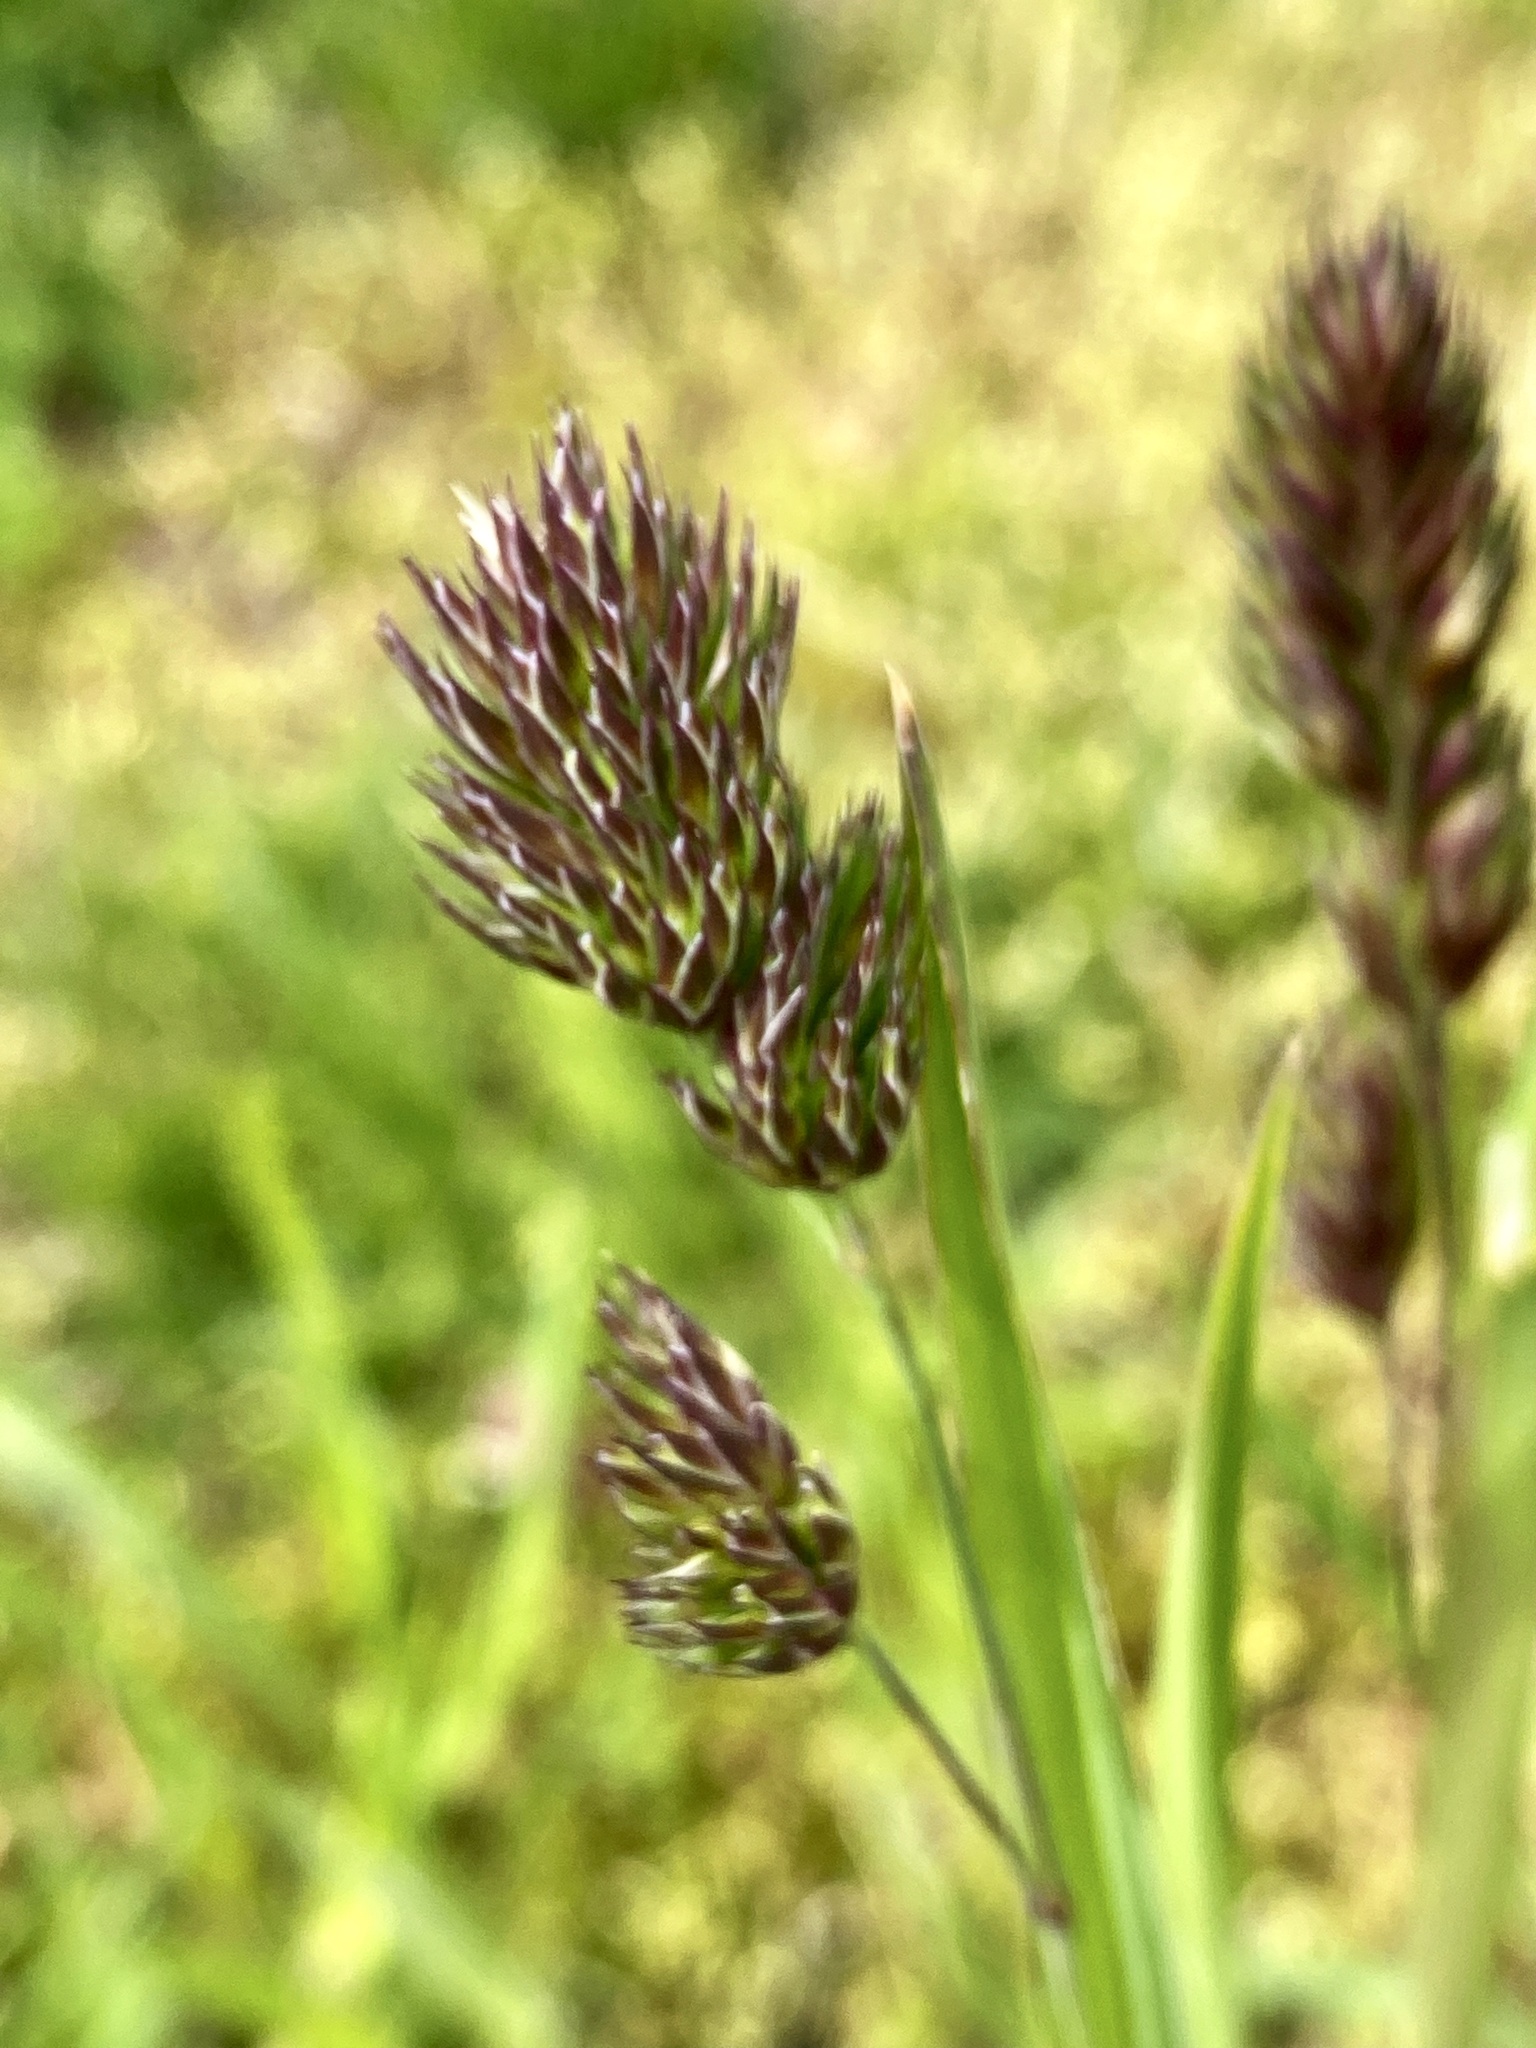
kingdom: Plantae
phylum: Tracheophyta
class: Liliopsida
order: Poales
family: Poaceae
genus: Dactylis
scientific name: Dactylis glomerata
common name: Orchardgrass
